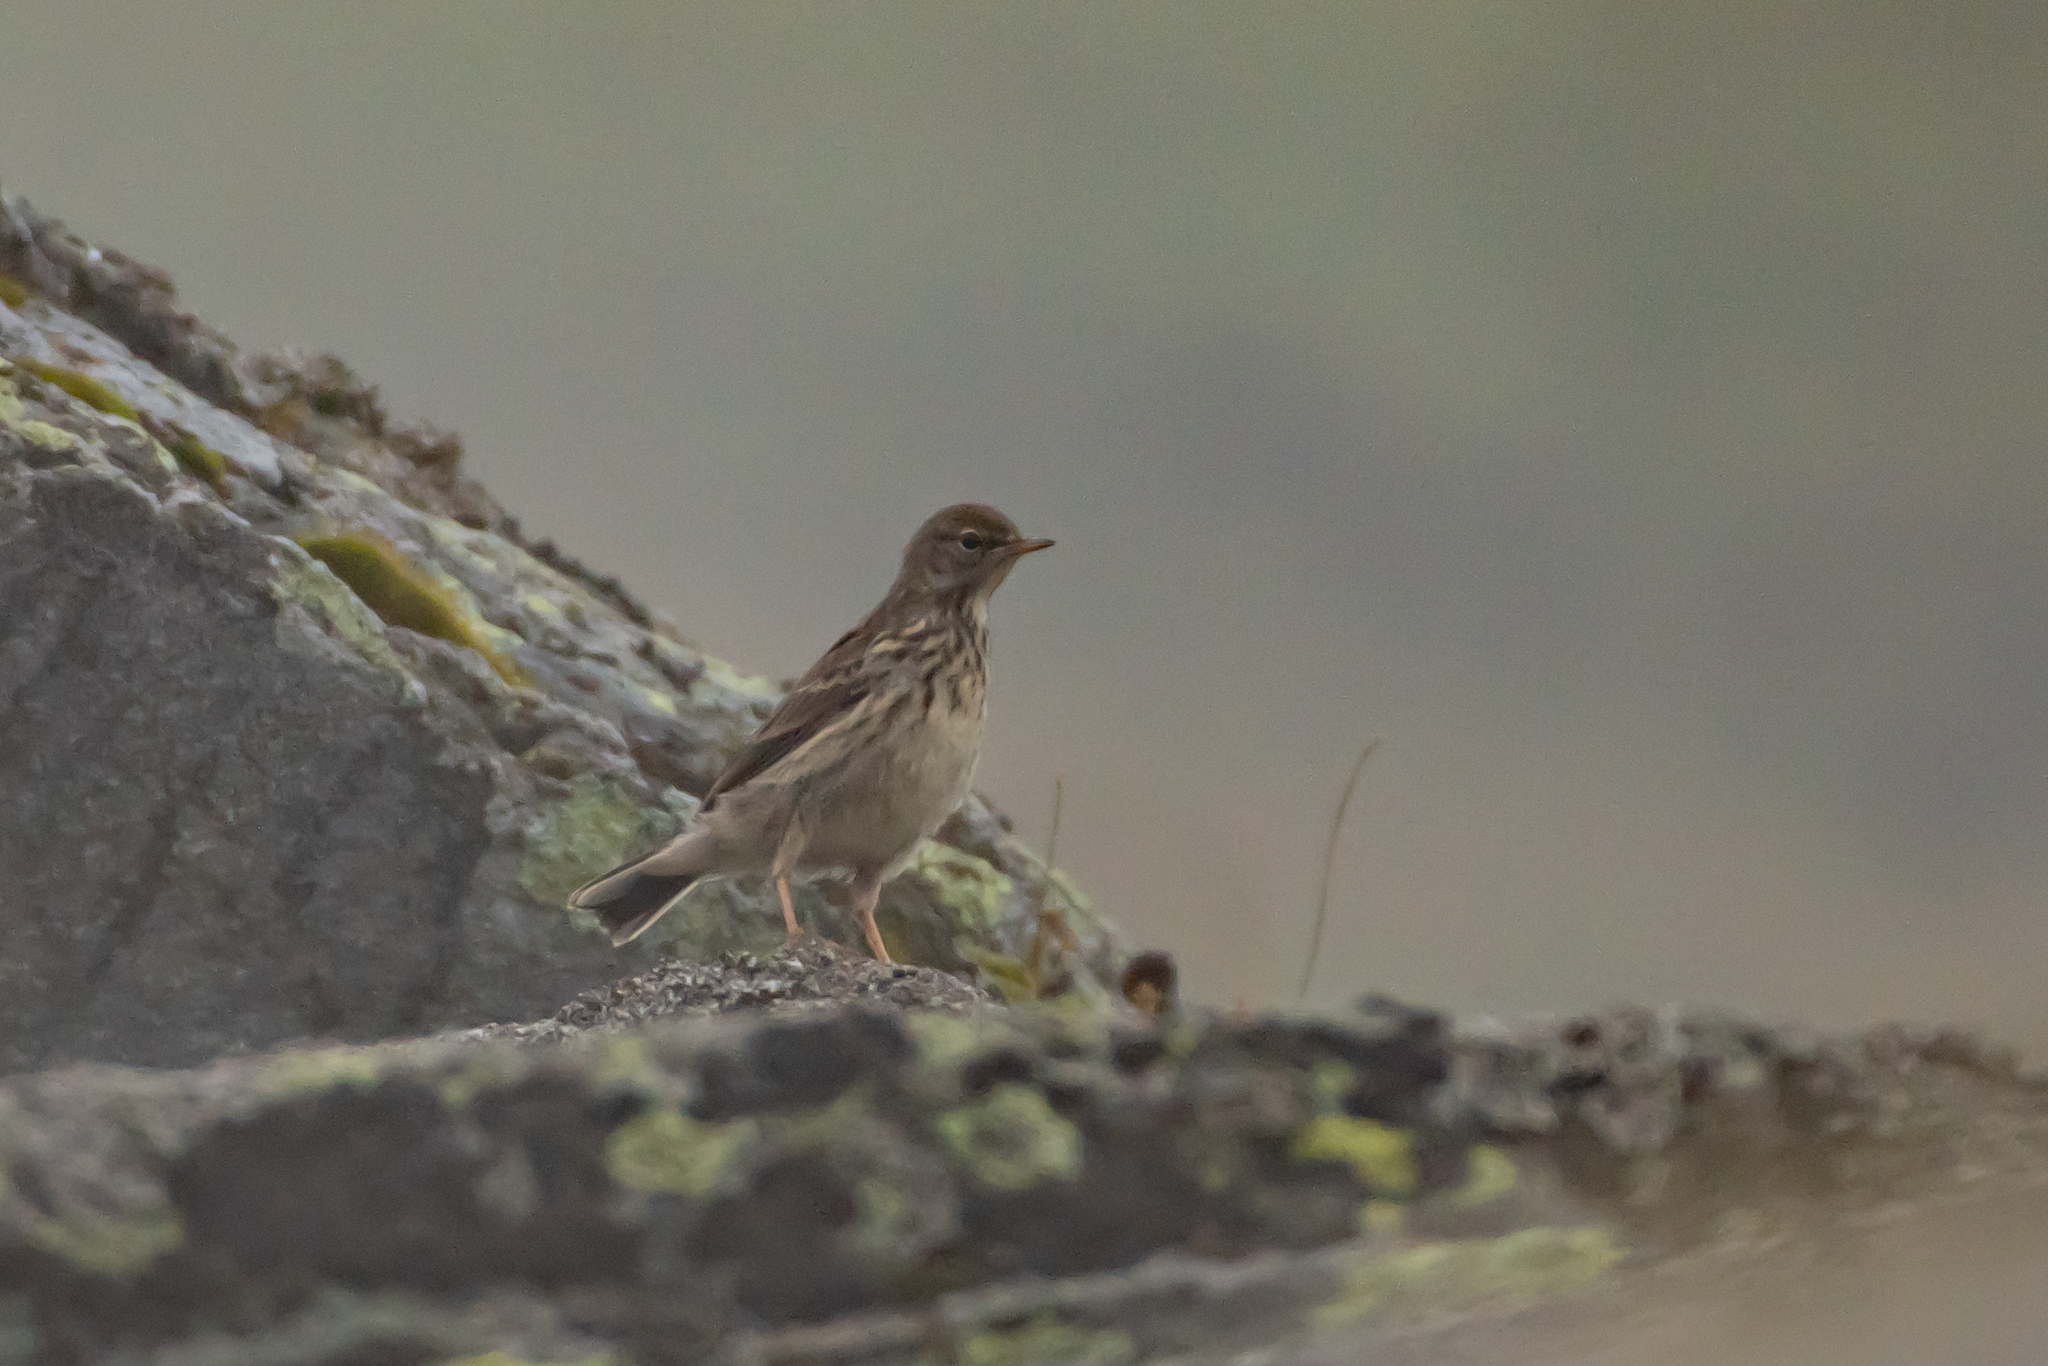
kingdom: Animalia
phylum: Chordata
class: Aves
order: Passeriformes
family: Motacillidae
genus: Anthus
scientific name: Anthus spinoletta
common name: Water pipit
